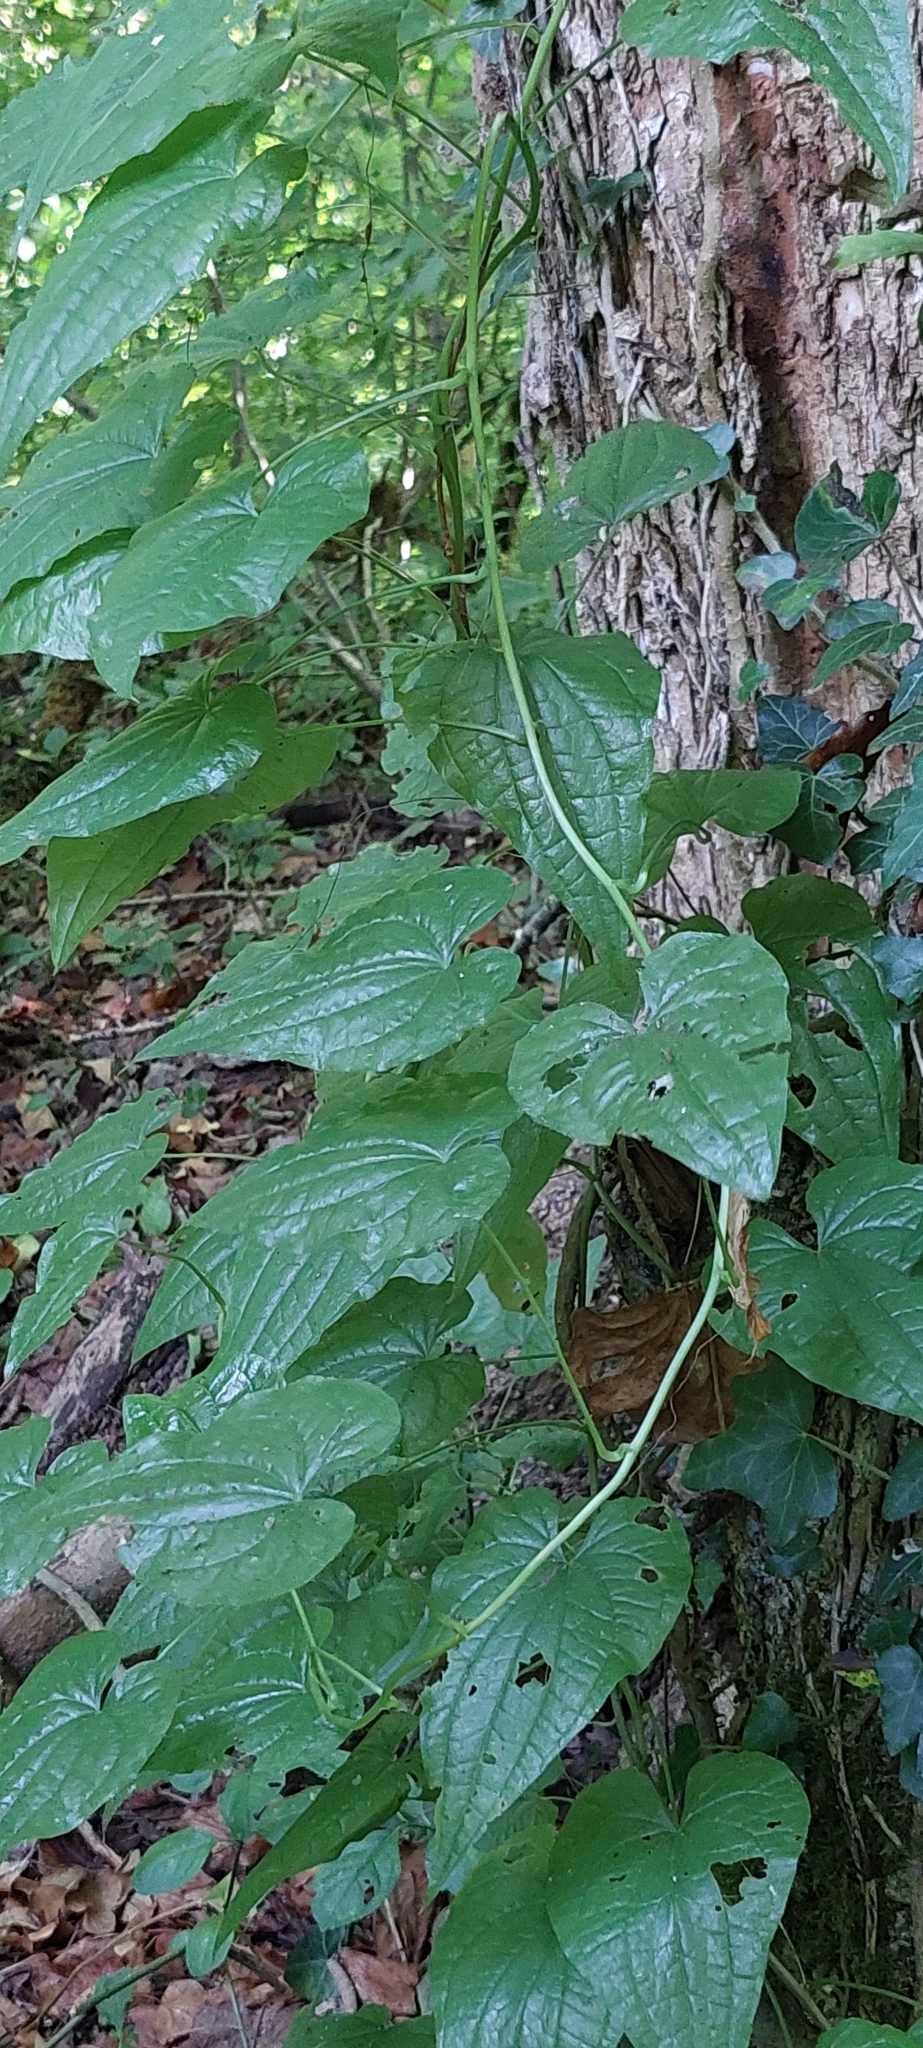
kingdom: Plantae
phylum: Tracheophyta
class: Liliopsida
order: Dioscoreales
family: Dioscoreaceae
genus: Dioscorea
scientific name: Dioscorea communis
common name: Black-bindweed
